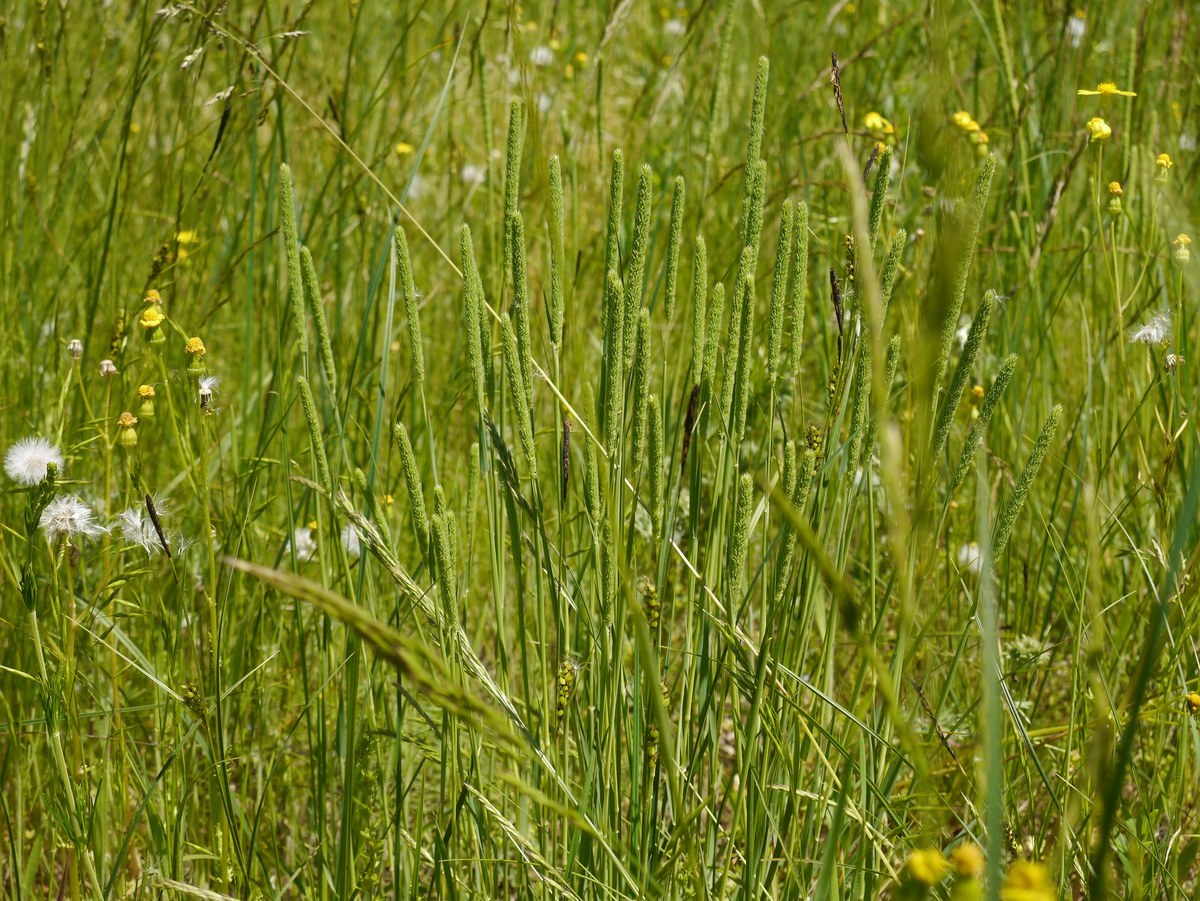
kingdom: Plantae
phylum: Tracheophyta
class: Liliopsida
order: Poales
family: Poaceae
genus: Phleum
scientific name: Phleum phleoides
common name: Purple-stem cat's-tail
